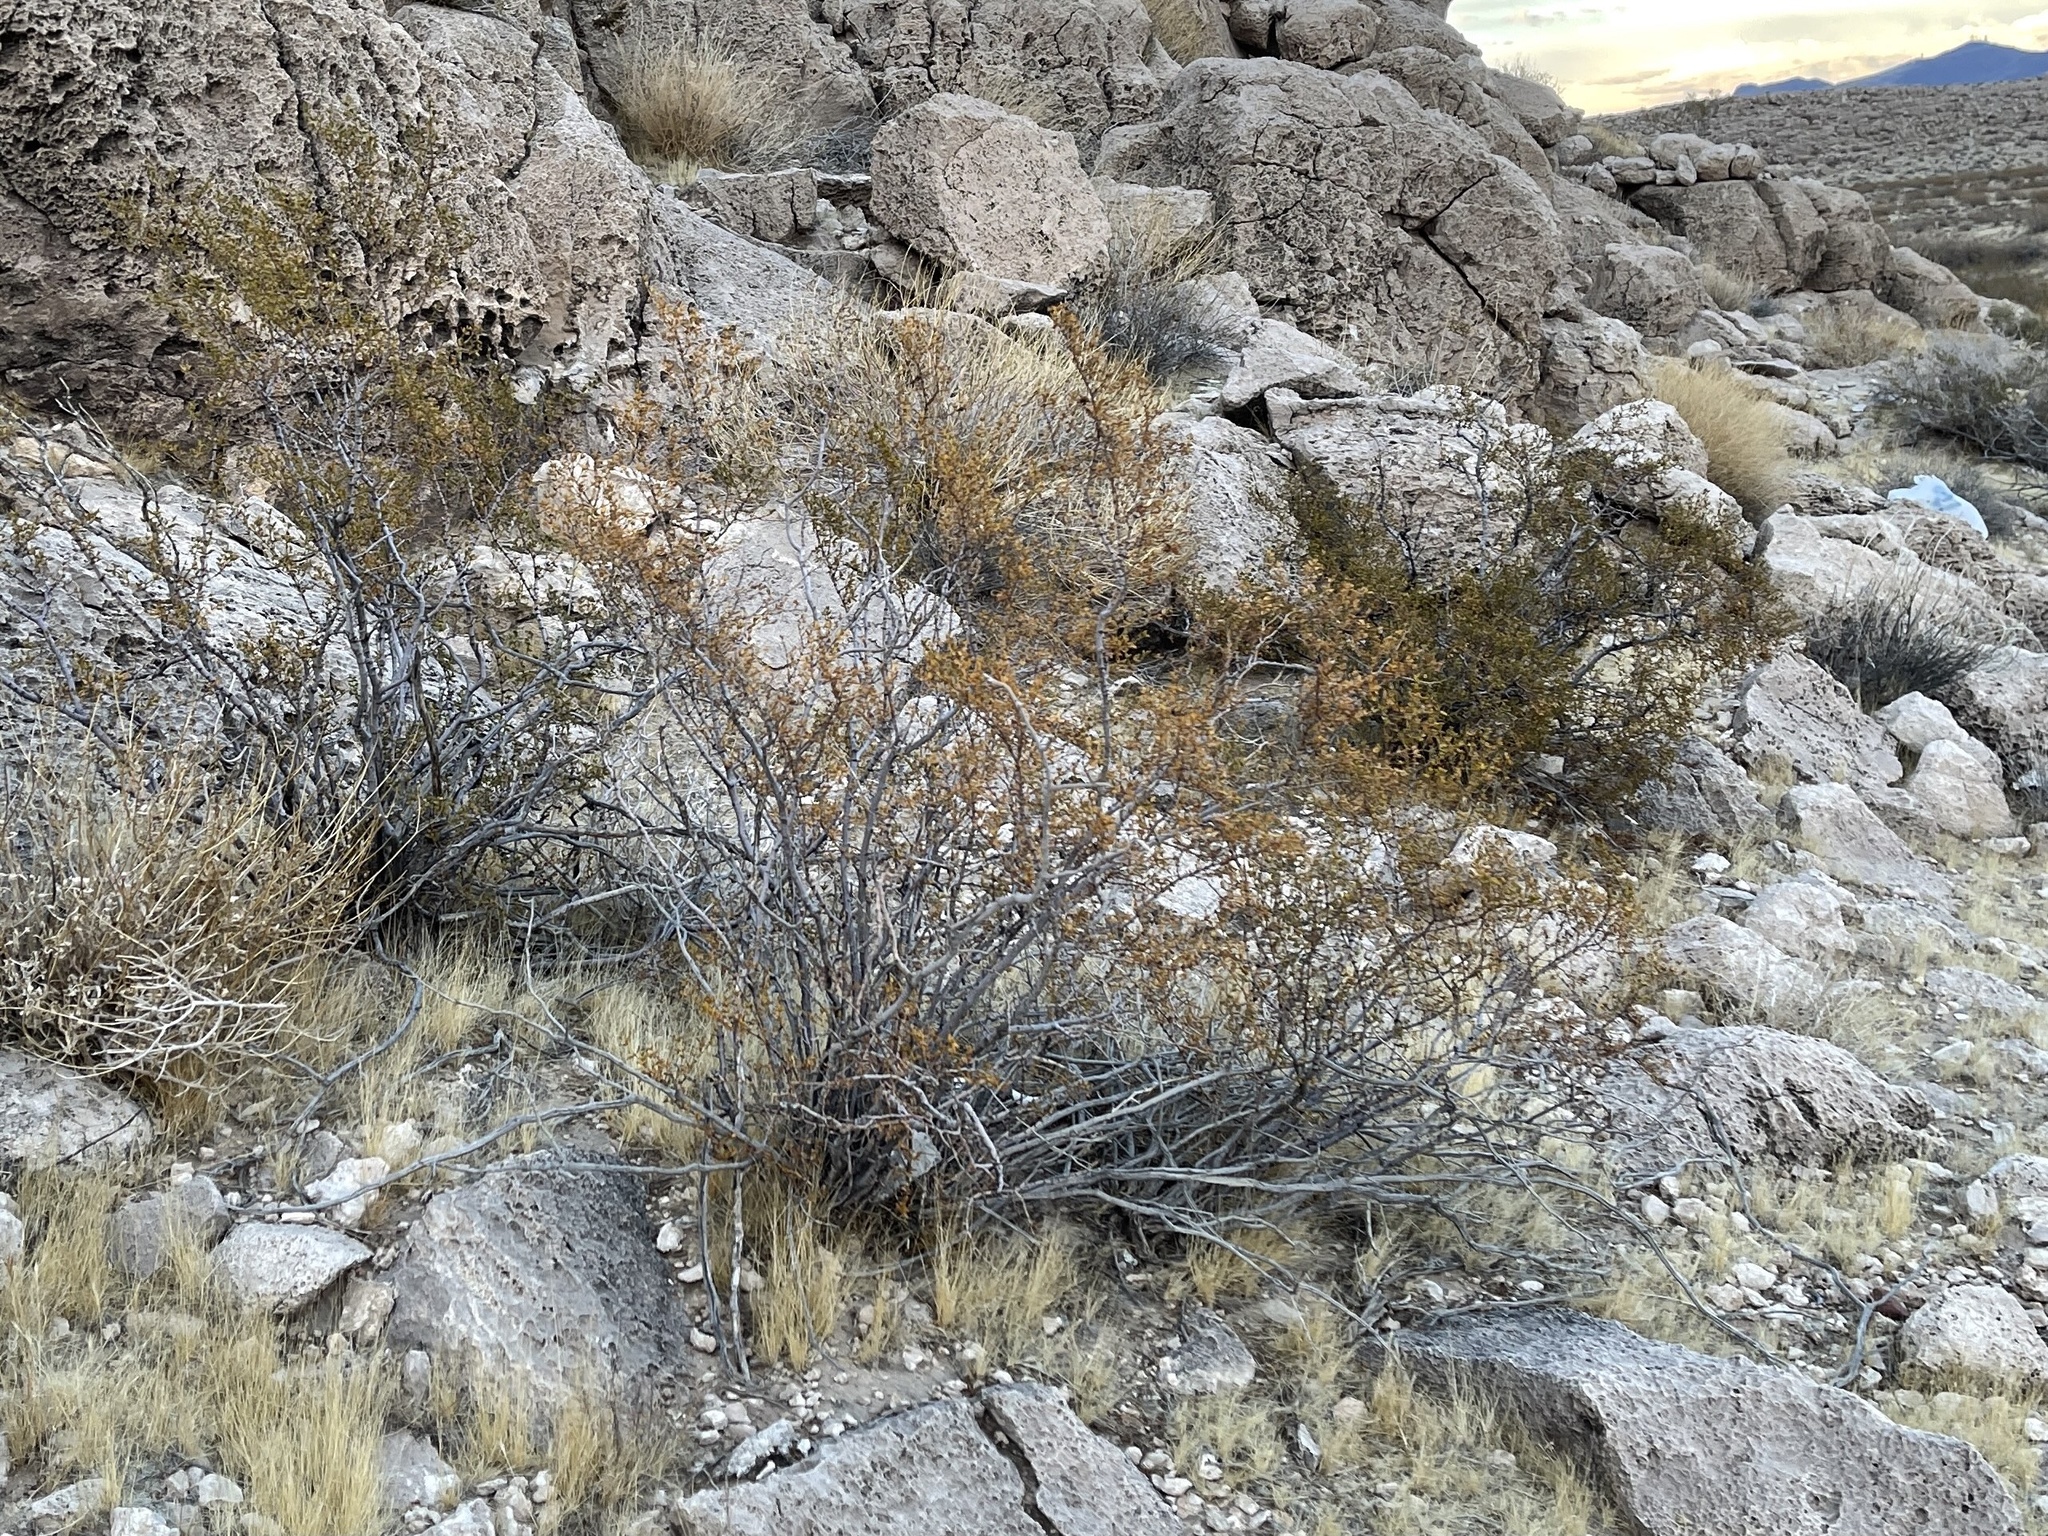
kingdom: Plantae
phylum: Tracheophyta
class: Magnoliopsida
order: Zygophyllales
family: Zygophyllaceae
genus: Larrea
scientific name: Larrea tridentata
